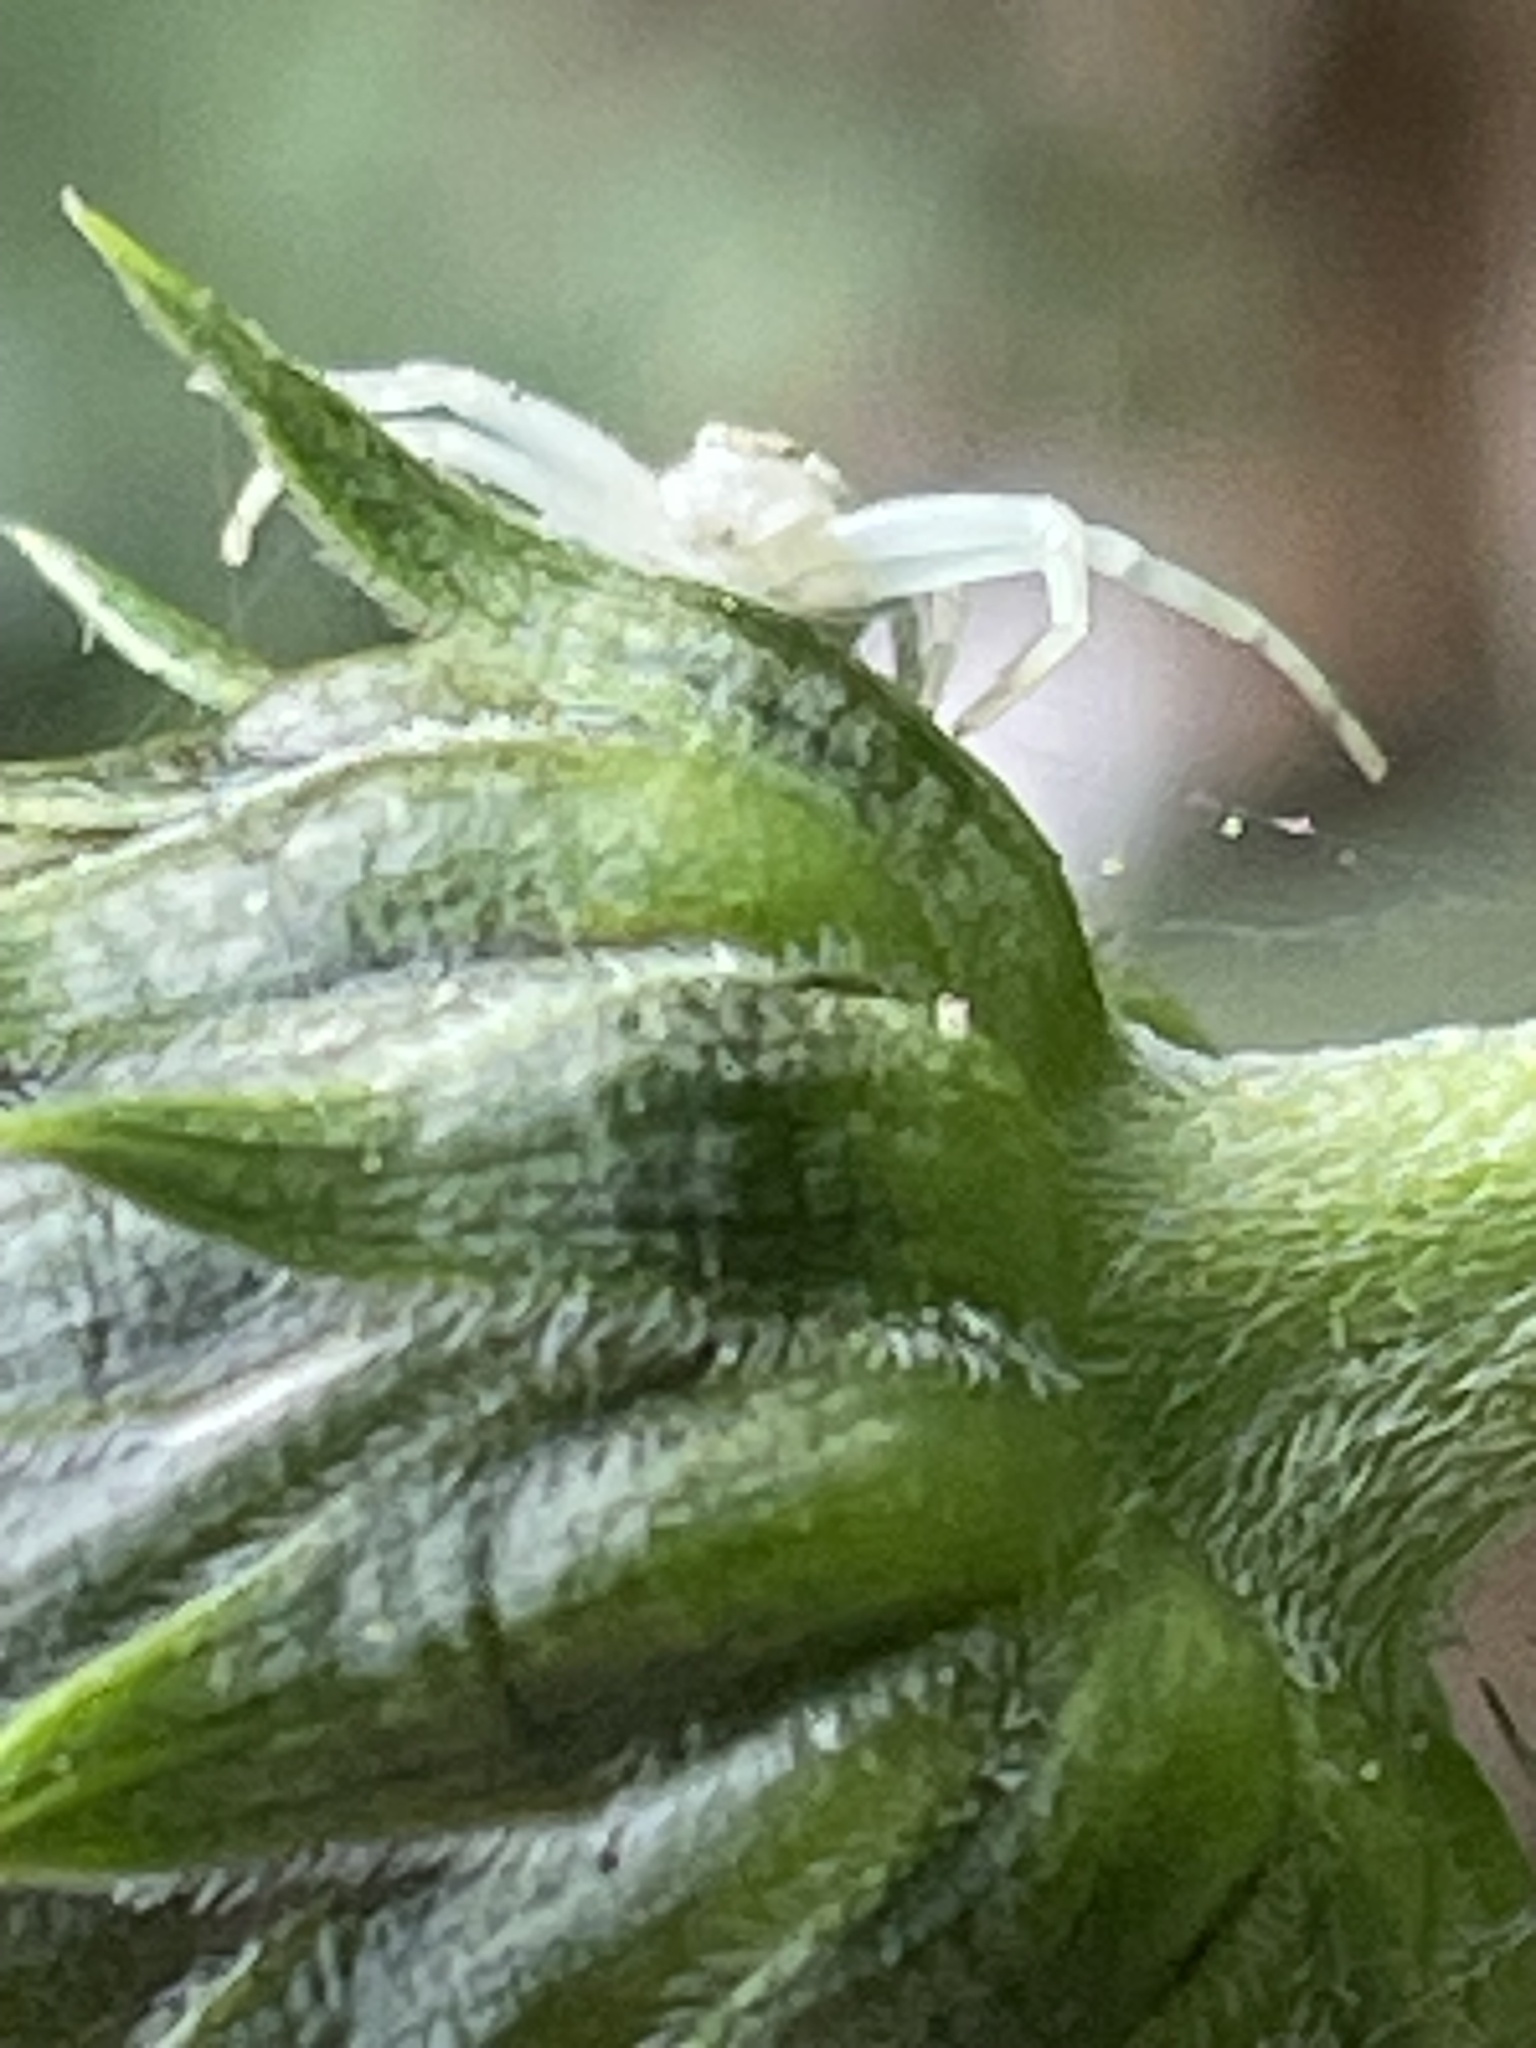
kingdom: Animalia
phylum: Arthropoda
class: Arachnida
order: Araneae
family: Thomisidae
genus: Misumena
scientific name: Misumena vatia
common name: Goldenrod crab spider
